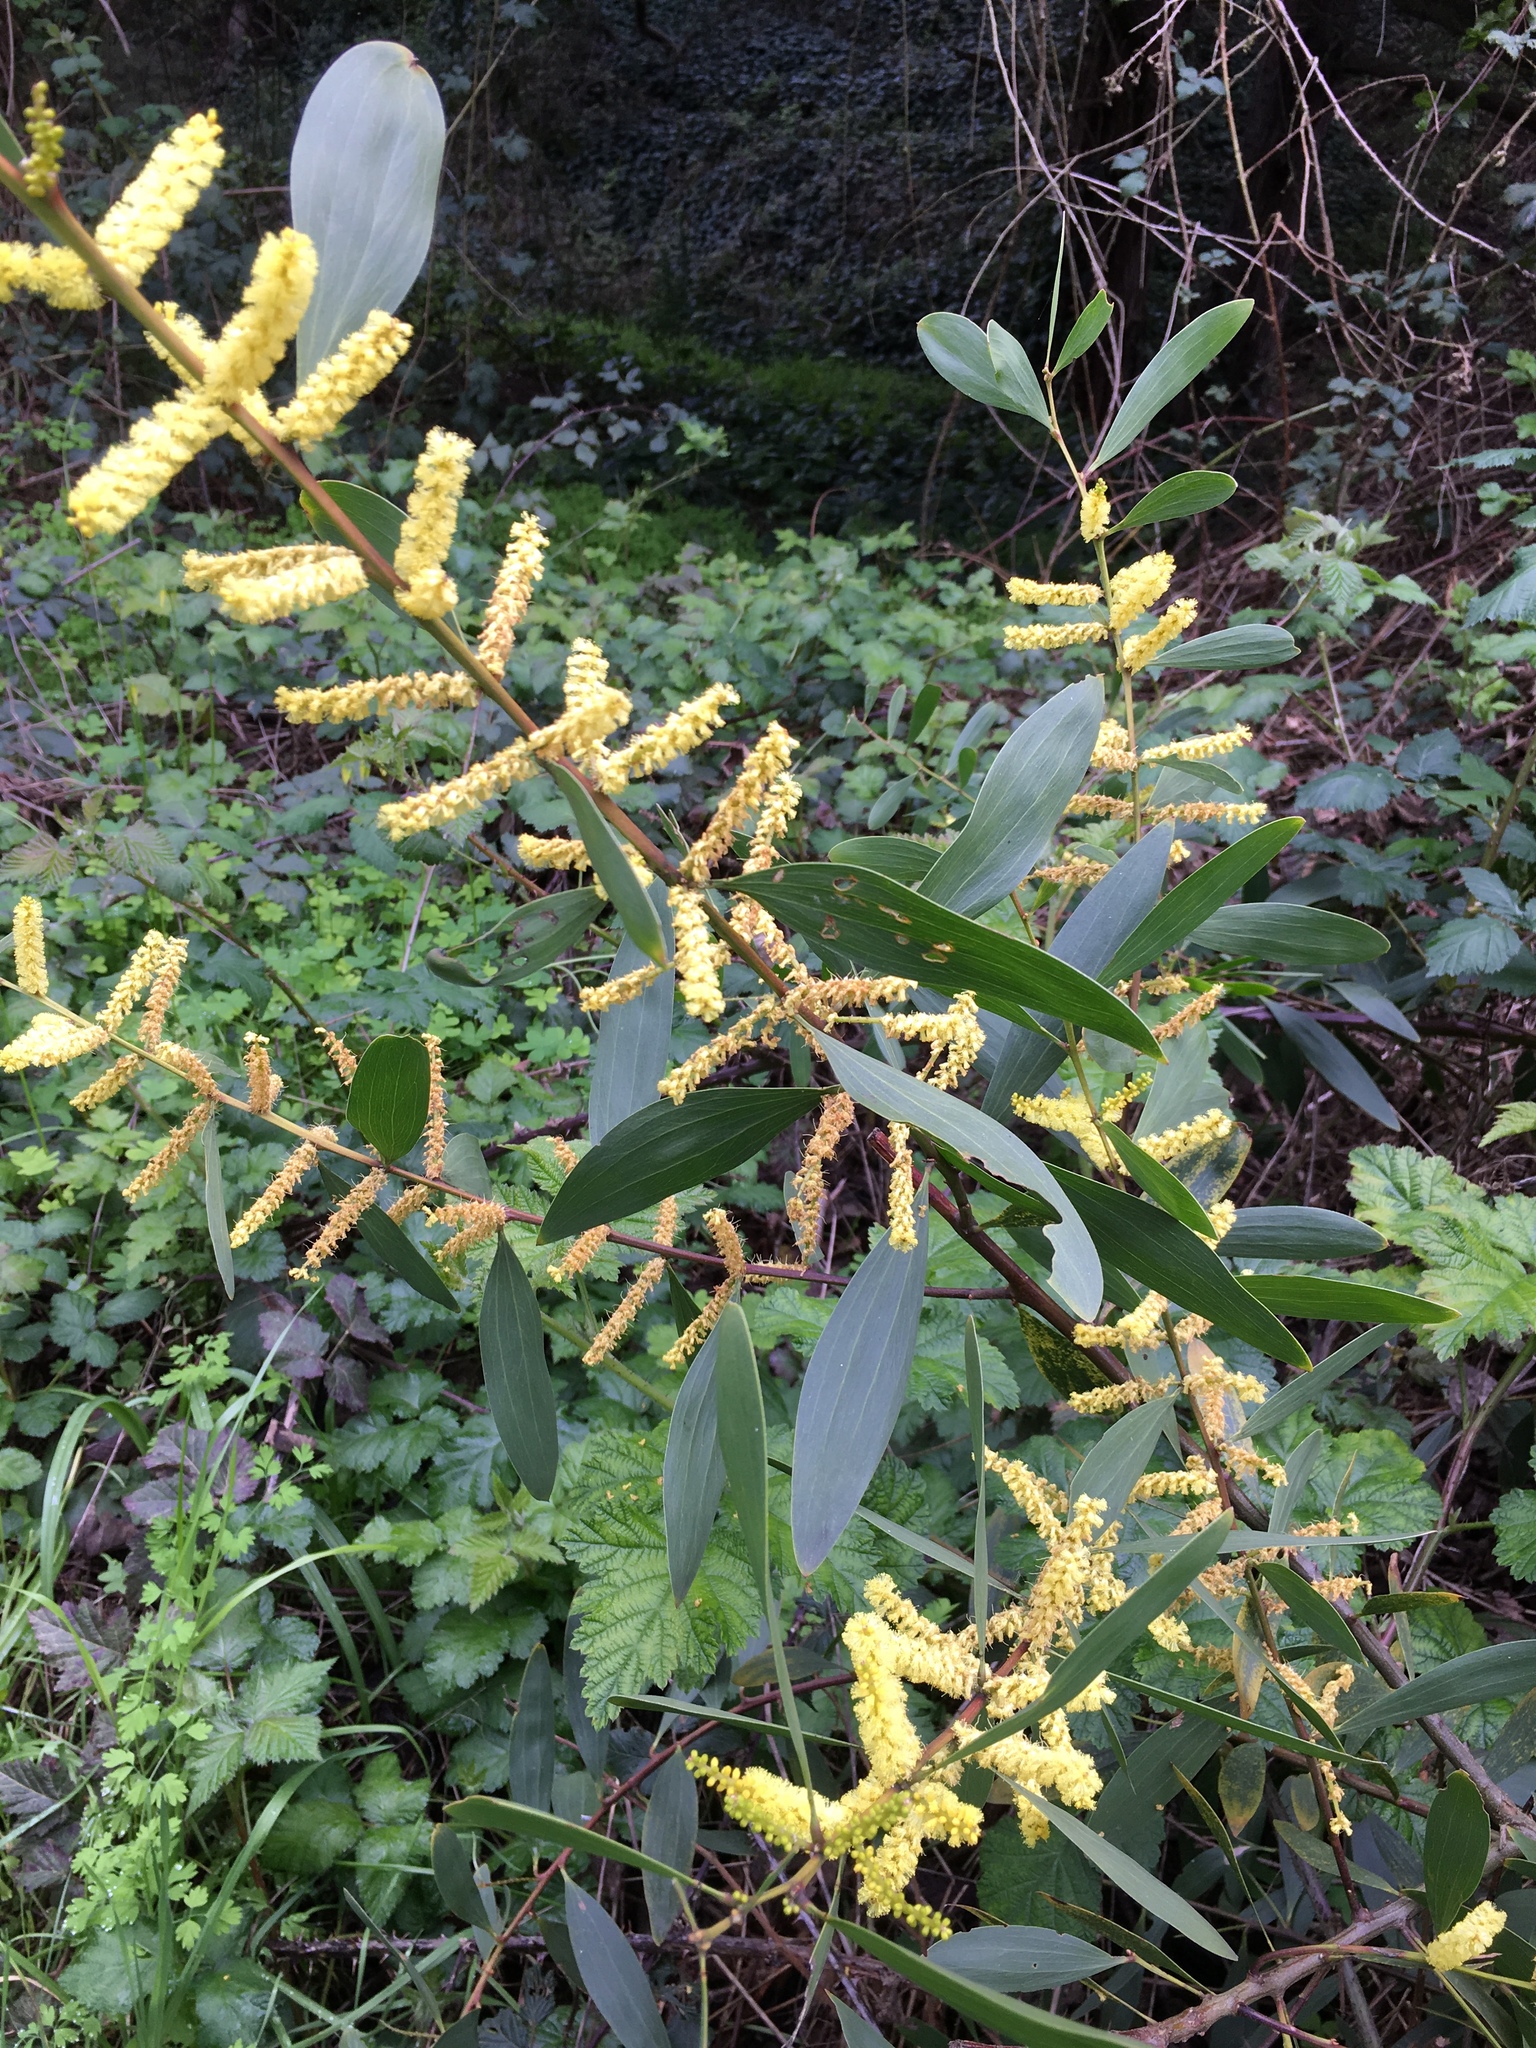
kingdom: Plantae
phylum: Tracheophyta
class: Magnoliopsida
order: Fabales
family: Fabaceae
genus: Acacia
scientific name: Acacia longifolia
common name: Sydney golden wattle
